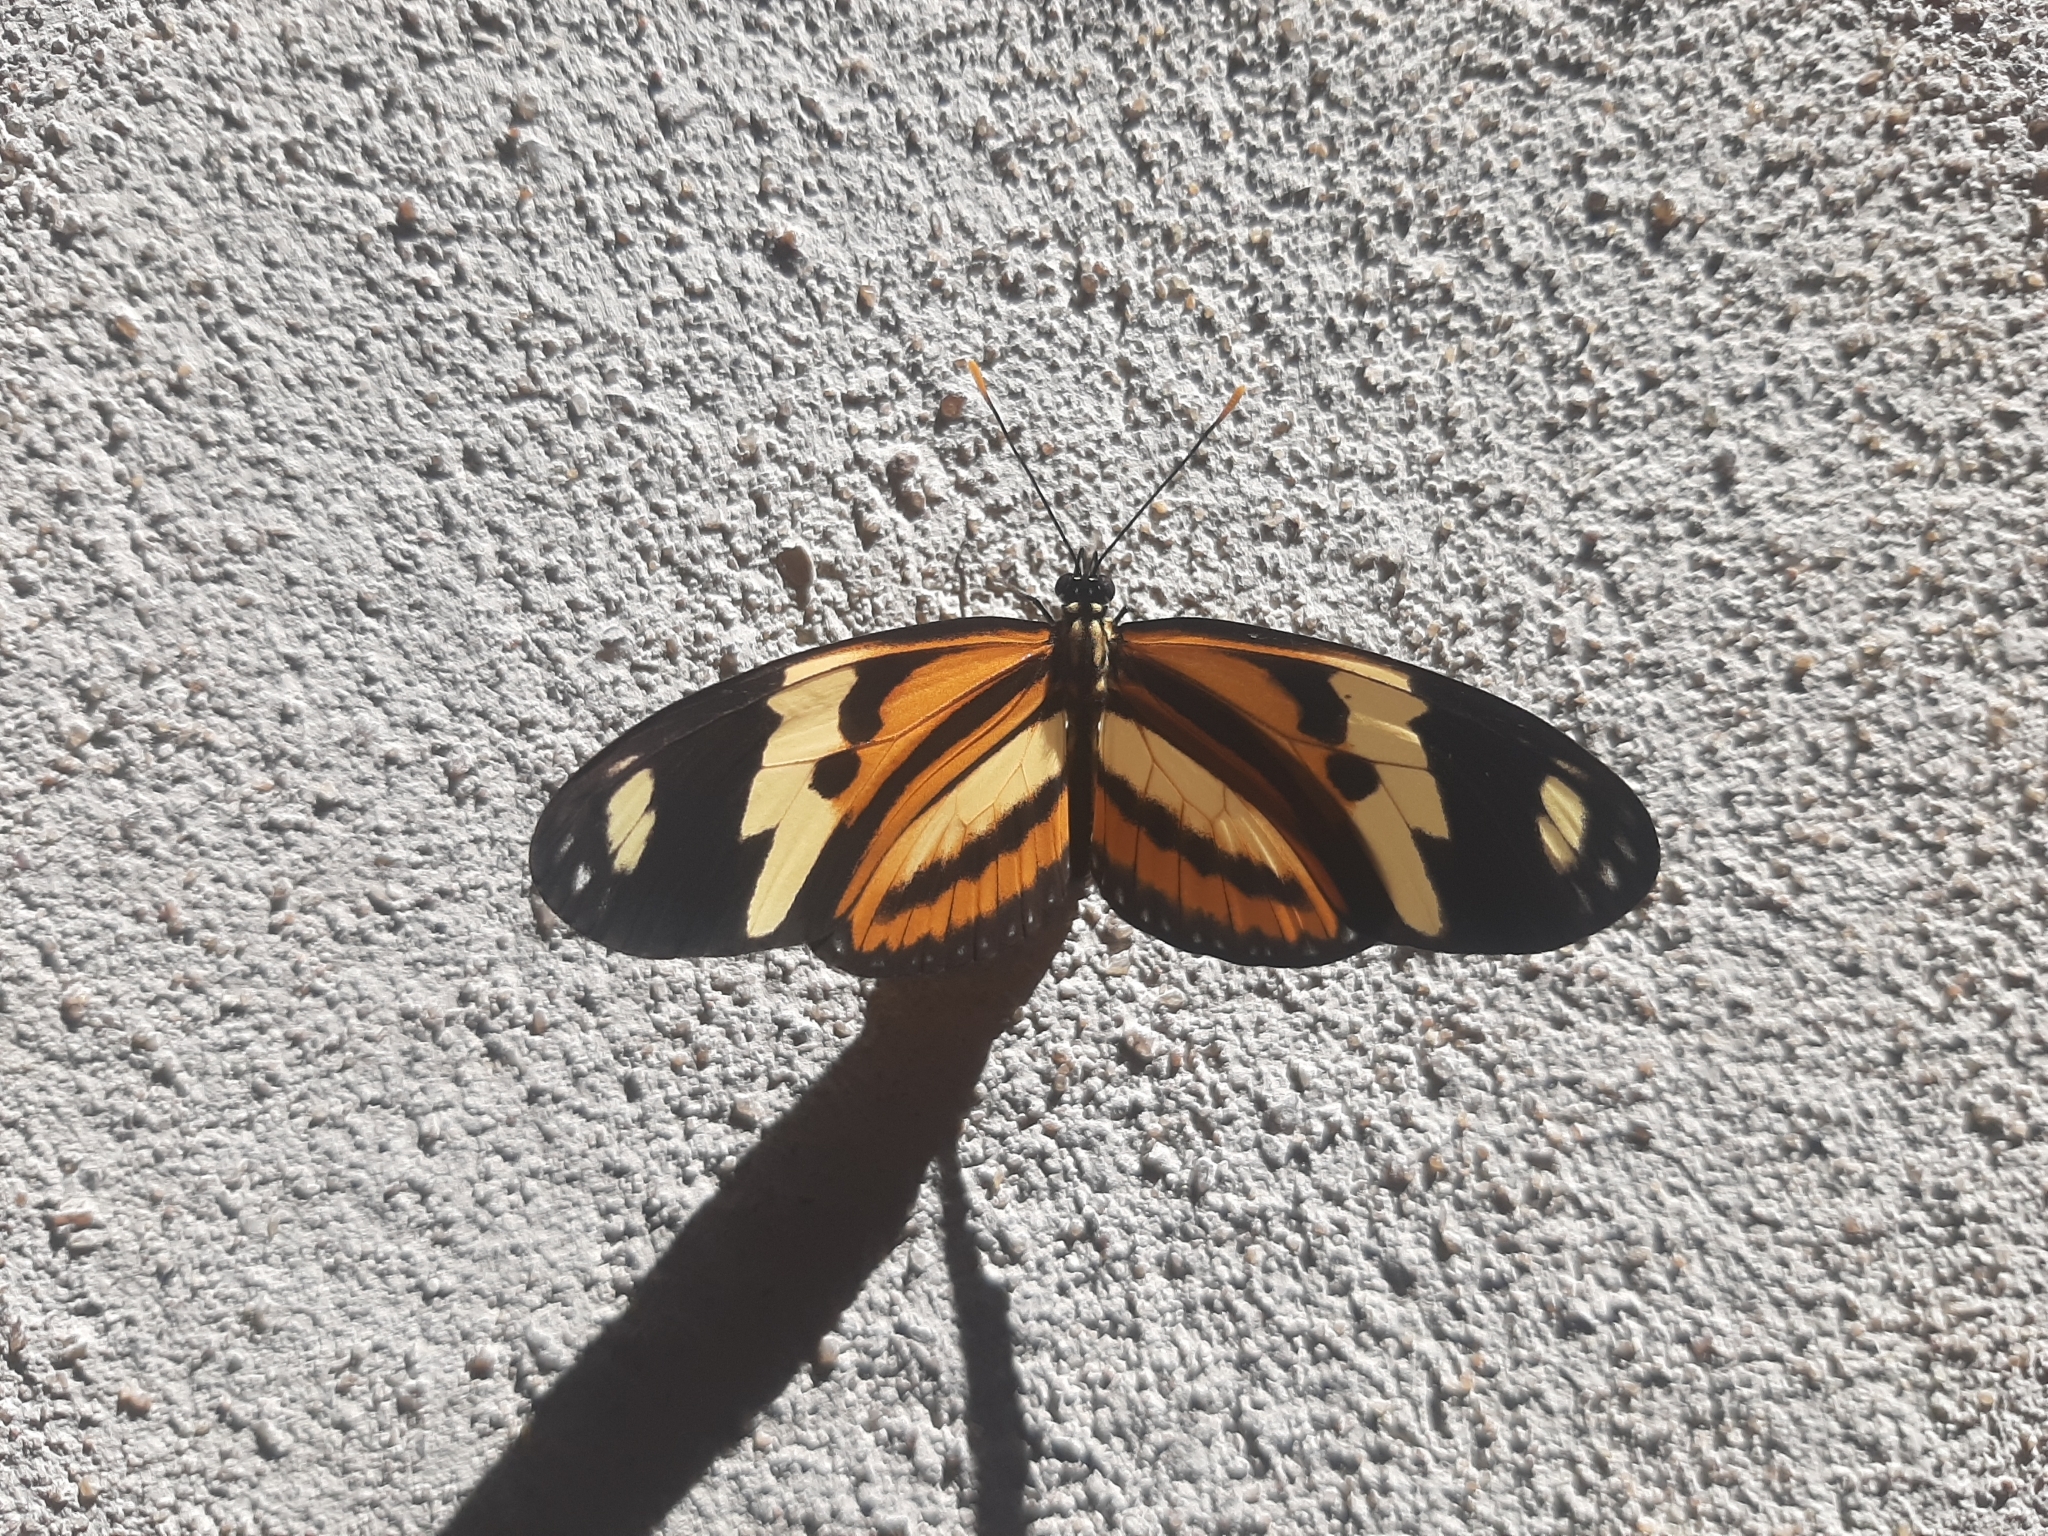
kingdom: Animalia
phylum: Arthropoda
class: Insecta
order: Lepidoptera
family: Nymphalidae
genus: Eueides
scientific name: Eueides isabella
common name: Isabella's longwing
